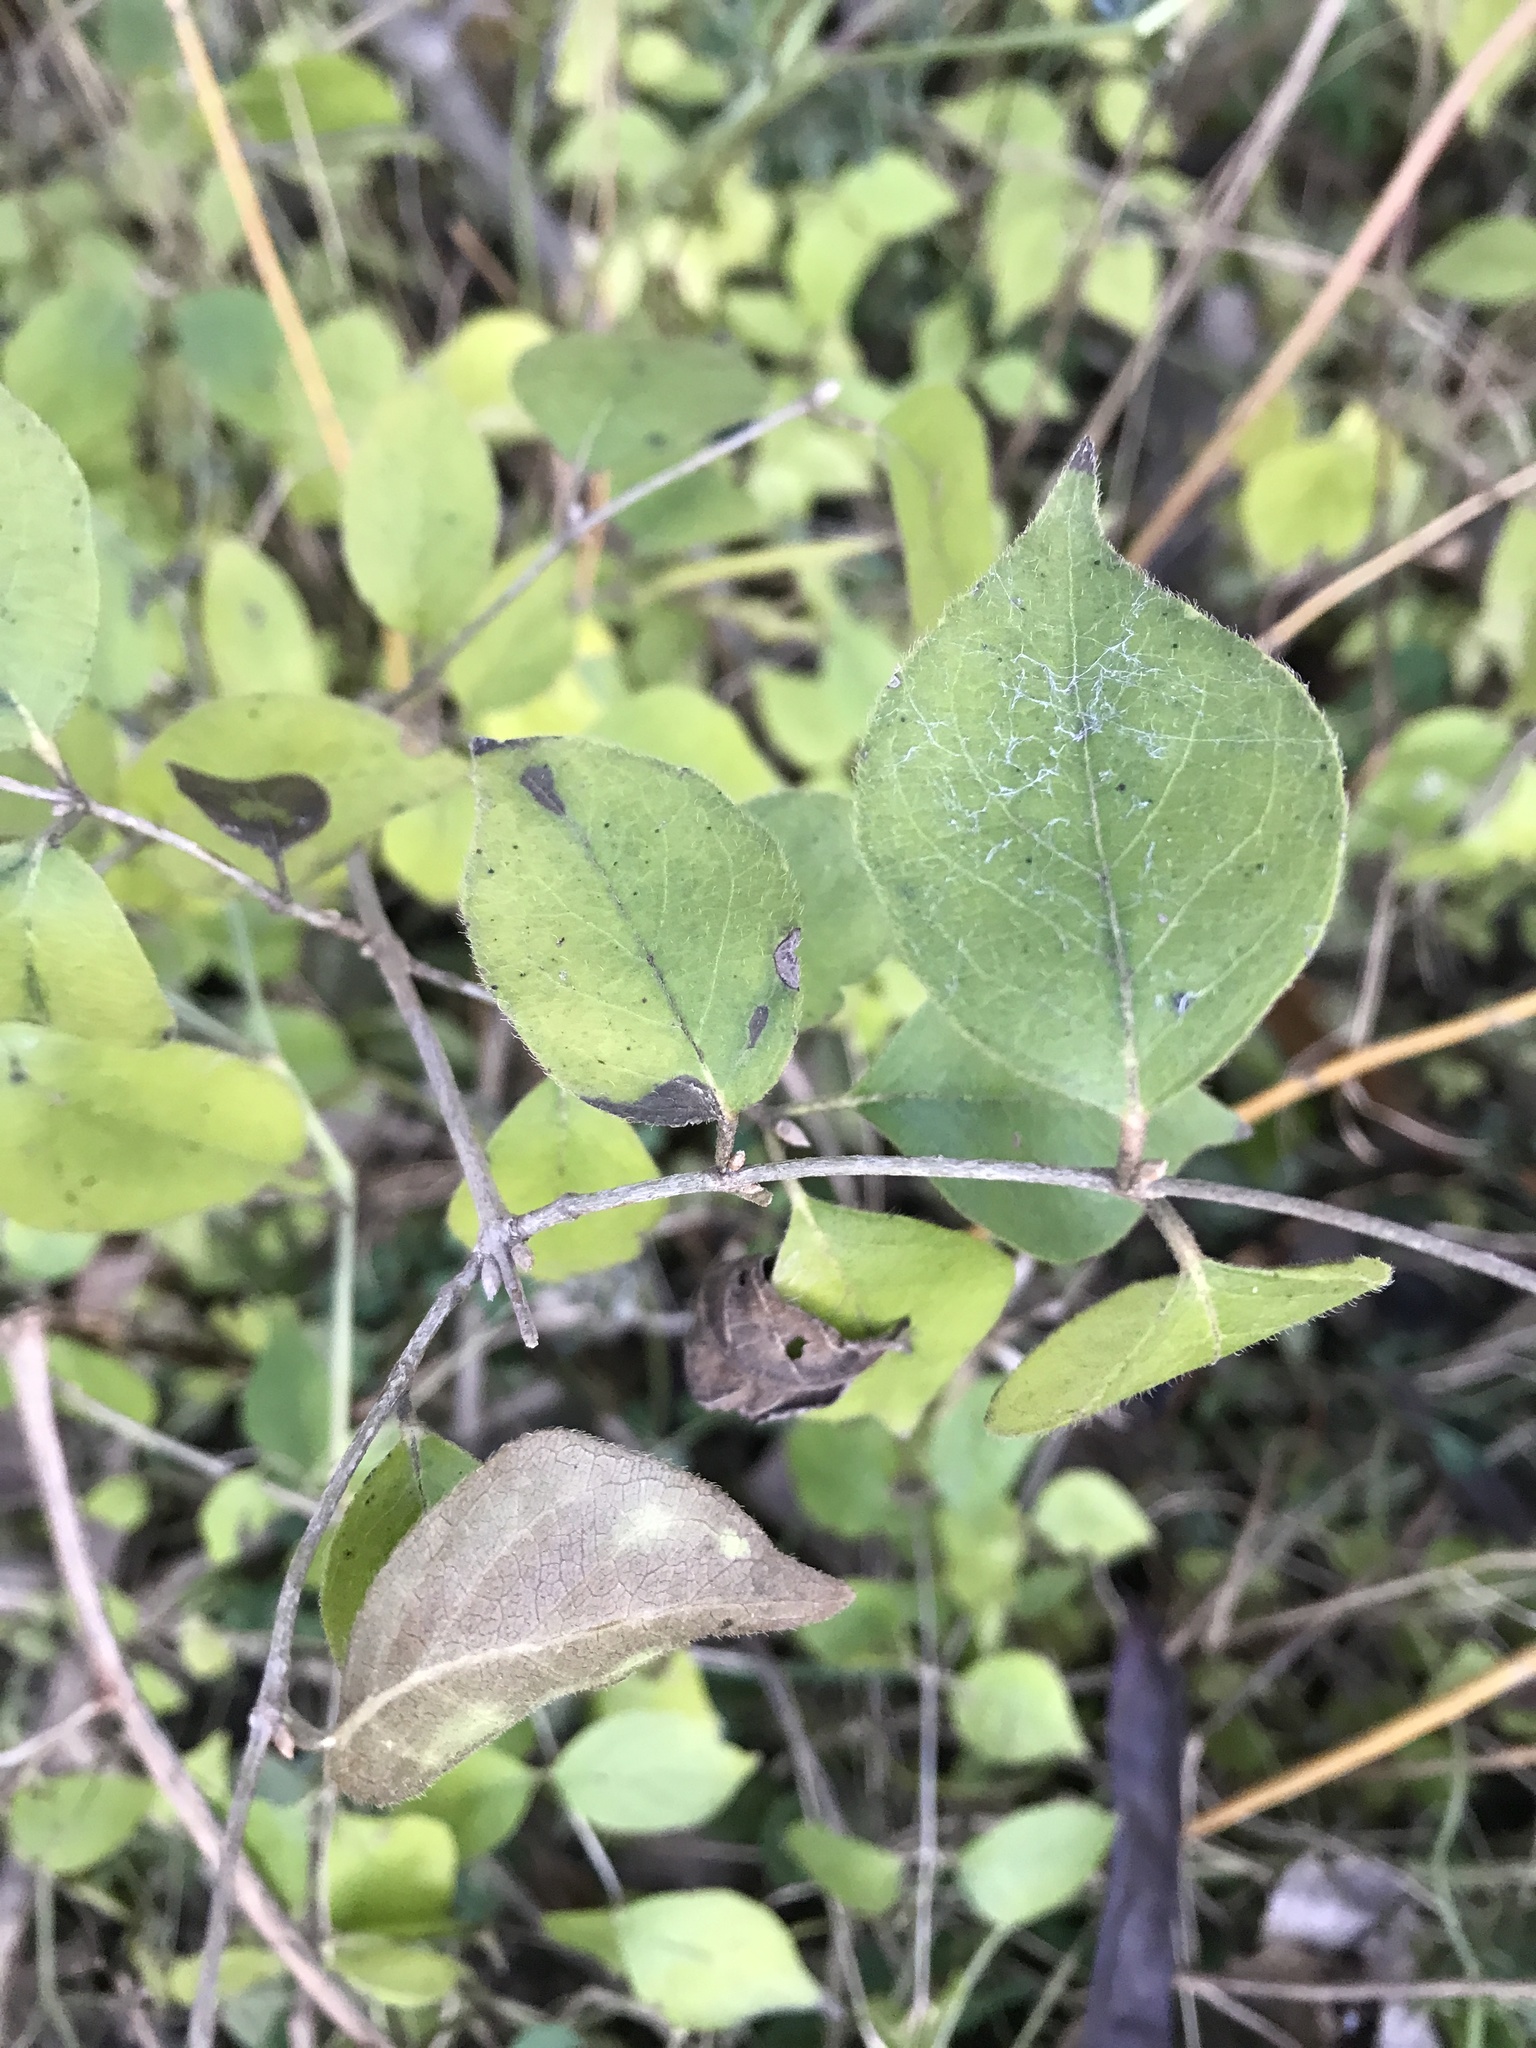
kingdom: Plantae
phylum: Tracheophyta
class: Magnoliopsida
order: Dipsacales
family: Caprifoliaceae
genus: Lonicera
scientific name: Lonicera maackii
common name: Amur honeysuckle
